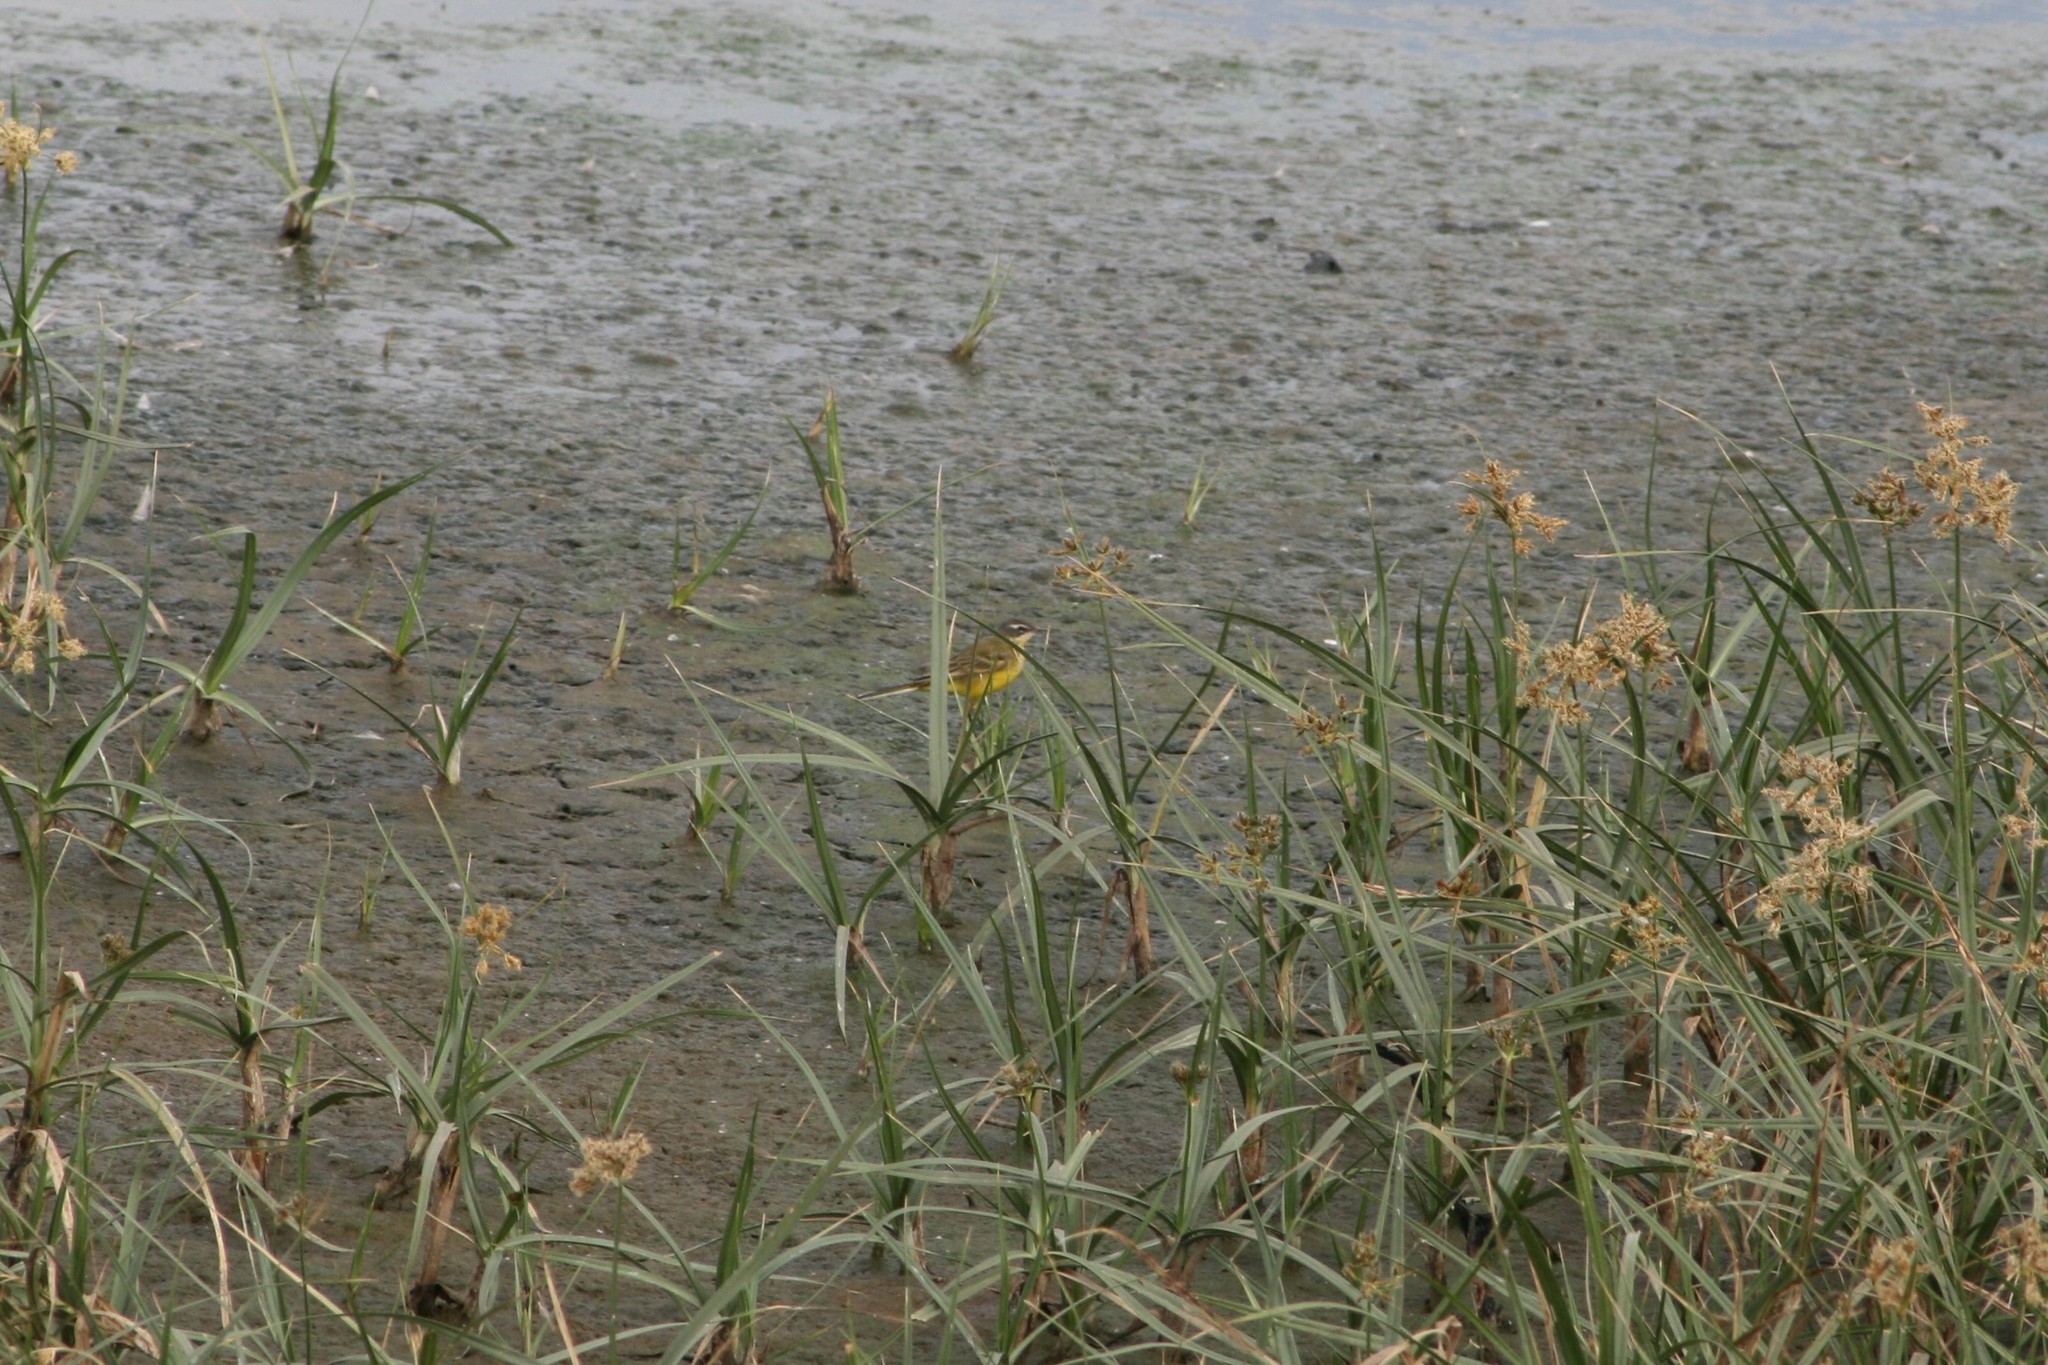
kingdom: Animalia
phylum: Chordata
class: Aves
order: Passeriformes
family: Motacillidae
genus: Motacilla
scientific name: Motacilla flava
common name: Western yellow wagtail
